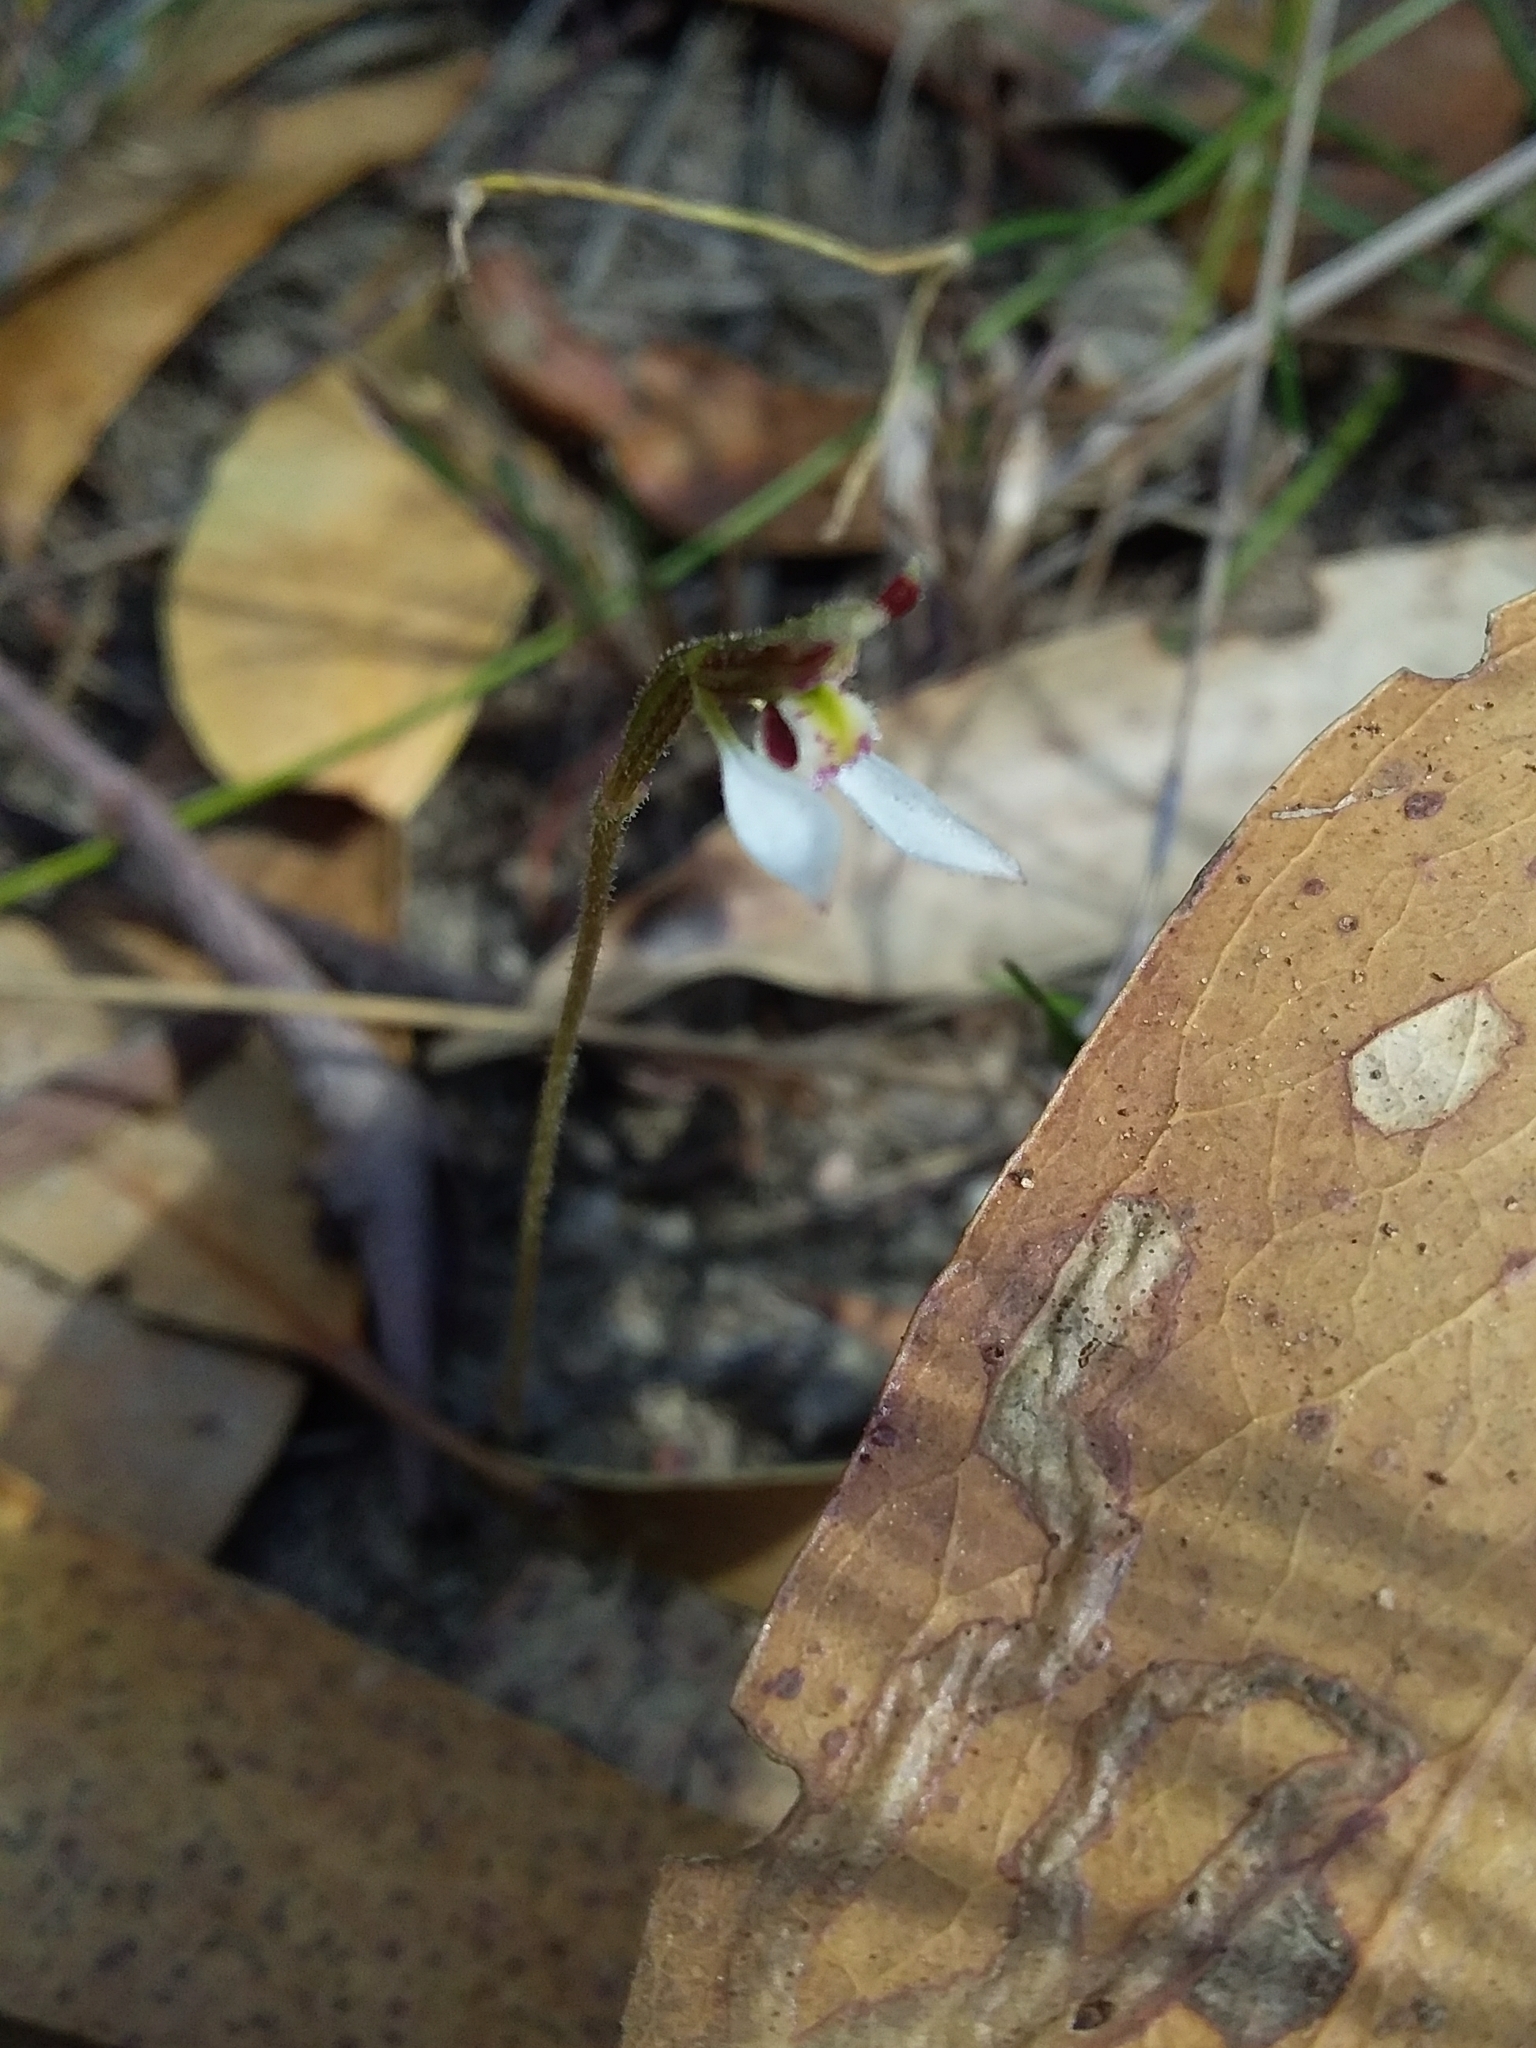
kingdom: Plantae
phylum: Tracheophyta
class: Liliopsida
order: Asparagales
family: Orchidaceae
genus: Eriochilus
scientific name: Eriochilus collinus
